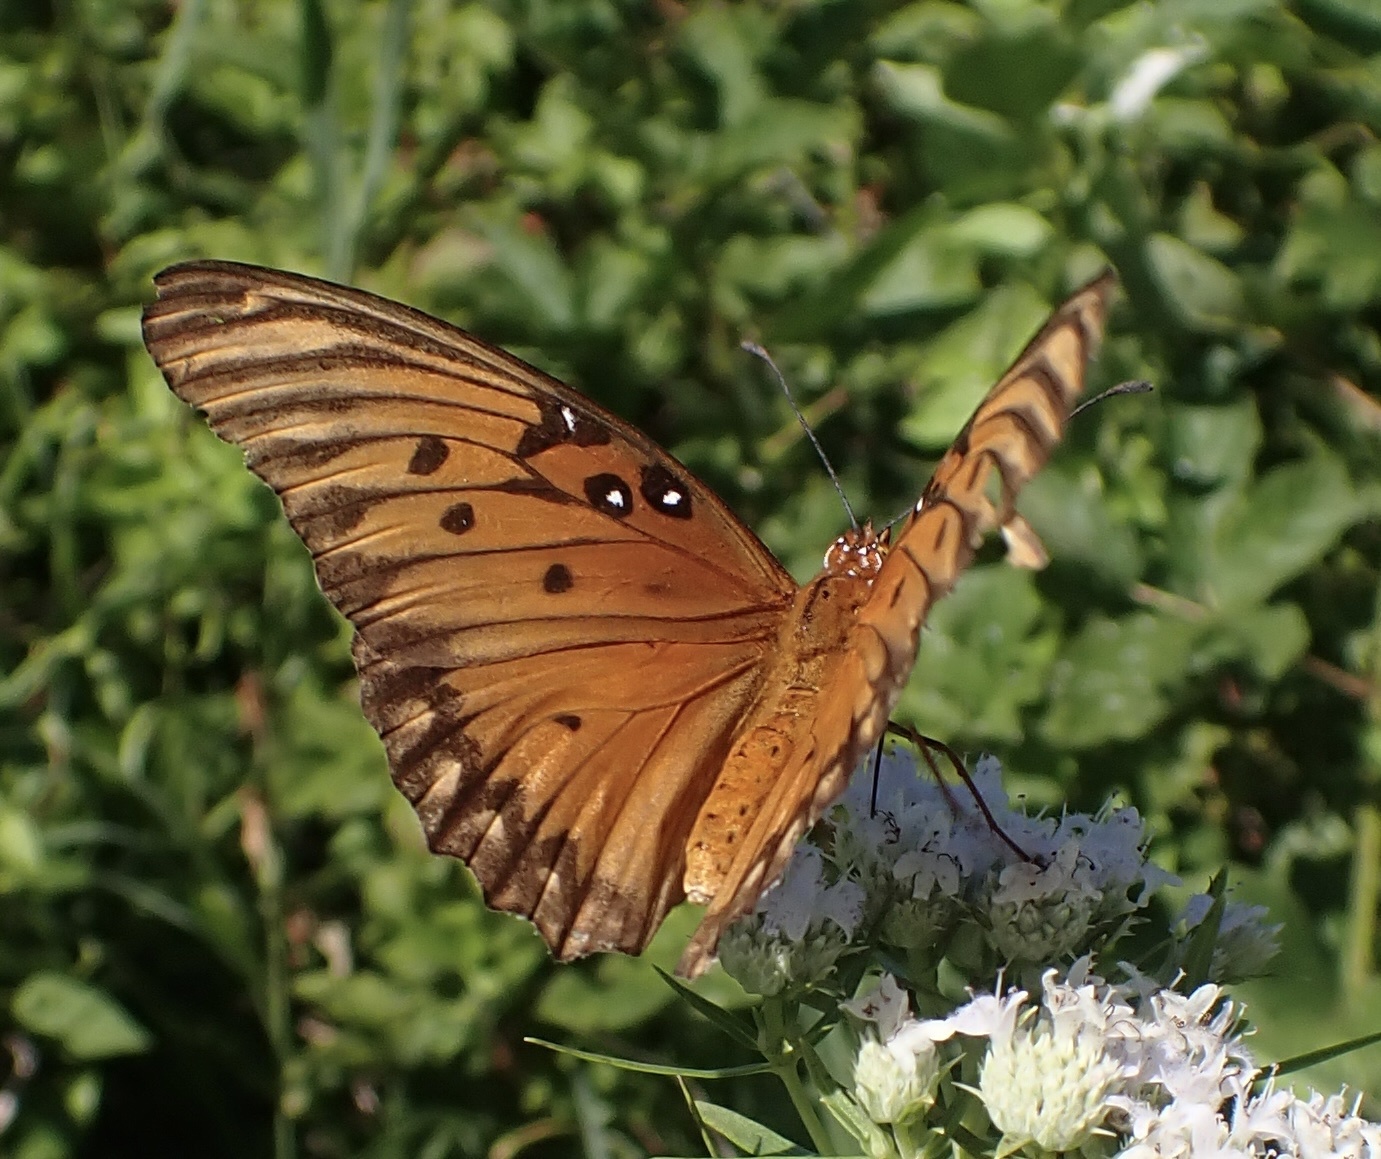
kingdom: Animalia
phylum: Arthropoda
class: Insecta
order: Lepidoptera
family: Nymphalidae
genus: Dione
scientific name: Dione vanillae
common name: Gulf fritillary
